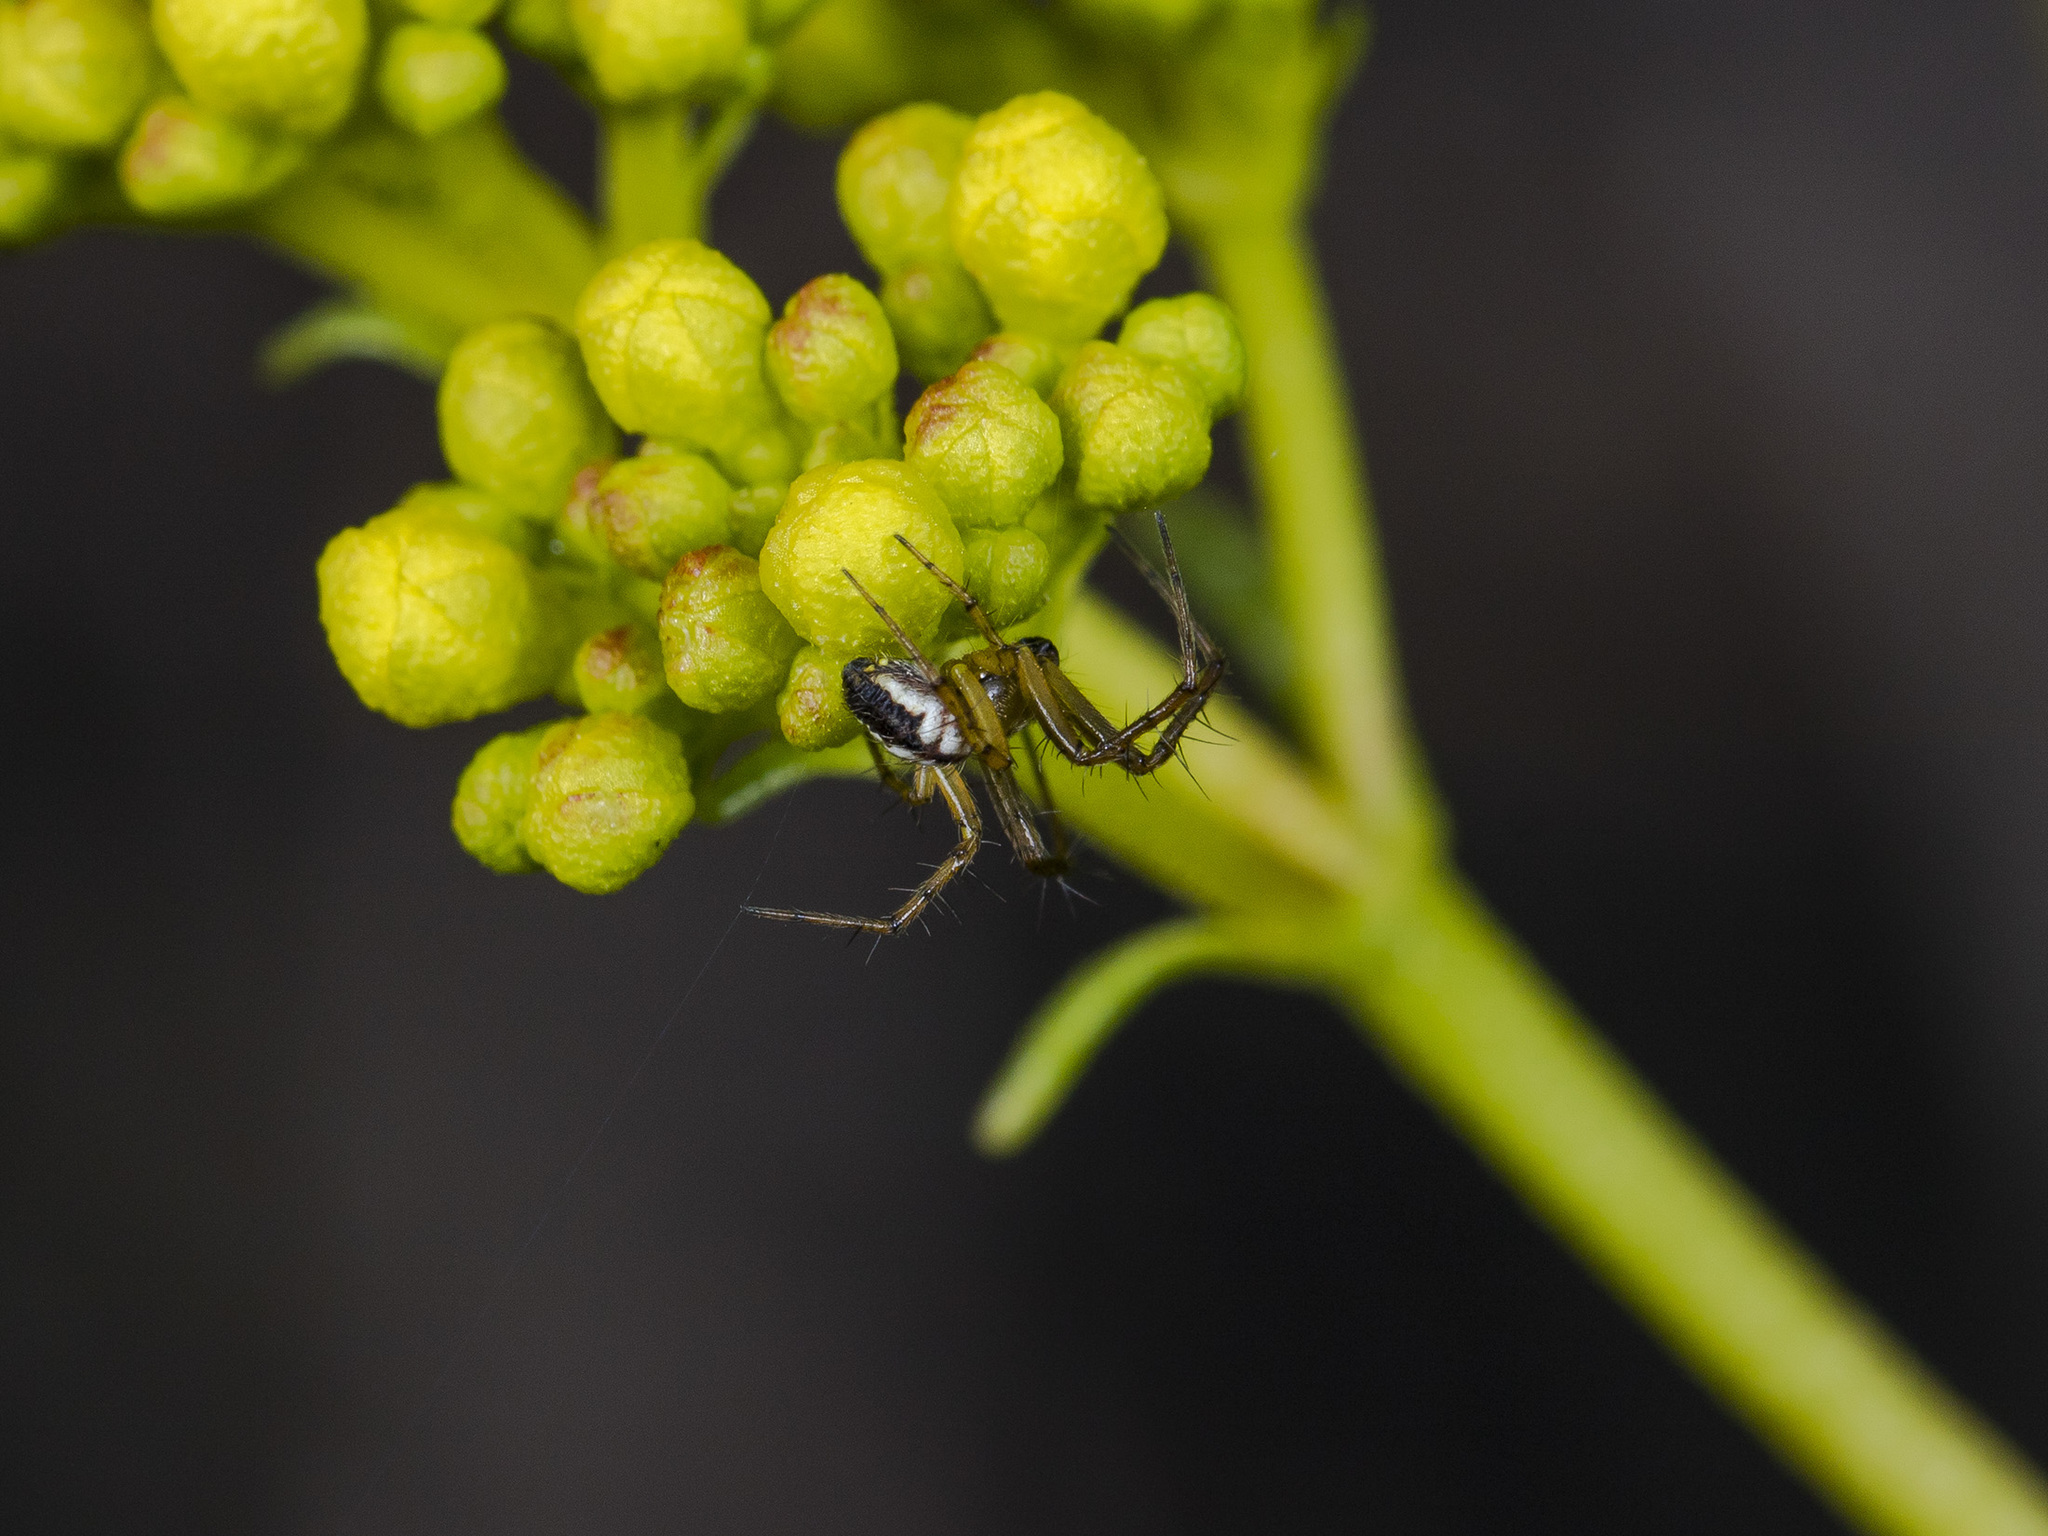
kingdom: Animalia
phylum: Arthropoda
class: Arachnida
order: Araneae
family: Araneidae
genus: Mangora
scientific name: Mangora acalypha
